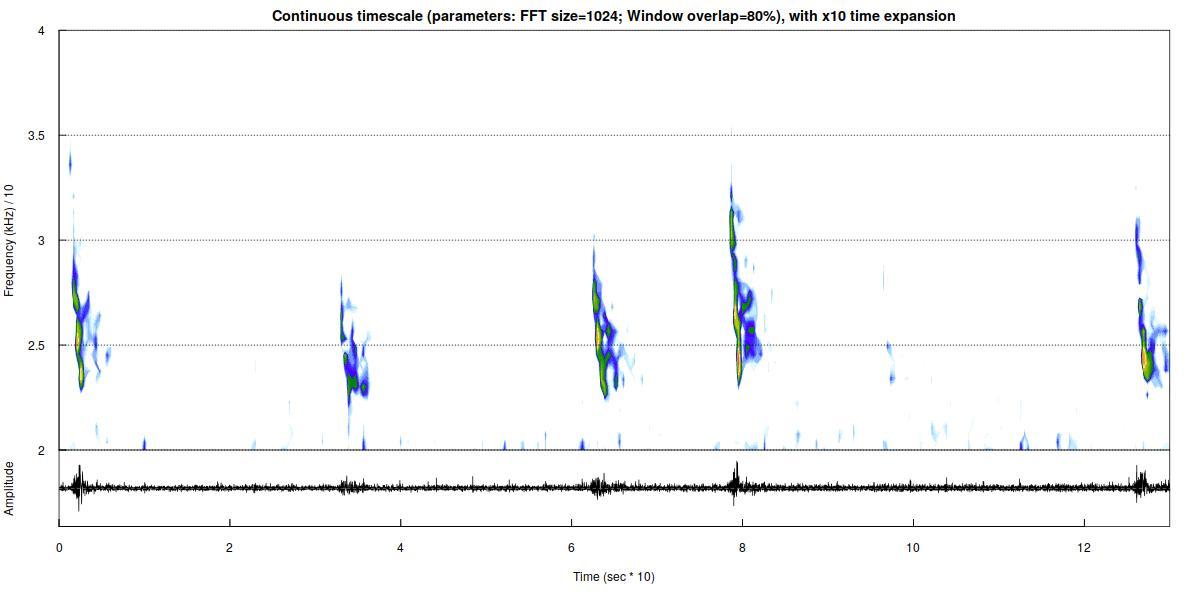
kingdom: Animalia
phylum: Chordata
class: Mammalia
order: Chiroptera
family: Vespertilionidae
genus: Eptesicus
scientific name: Eptesicus serotinus
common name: Serotine
